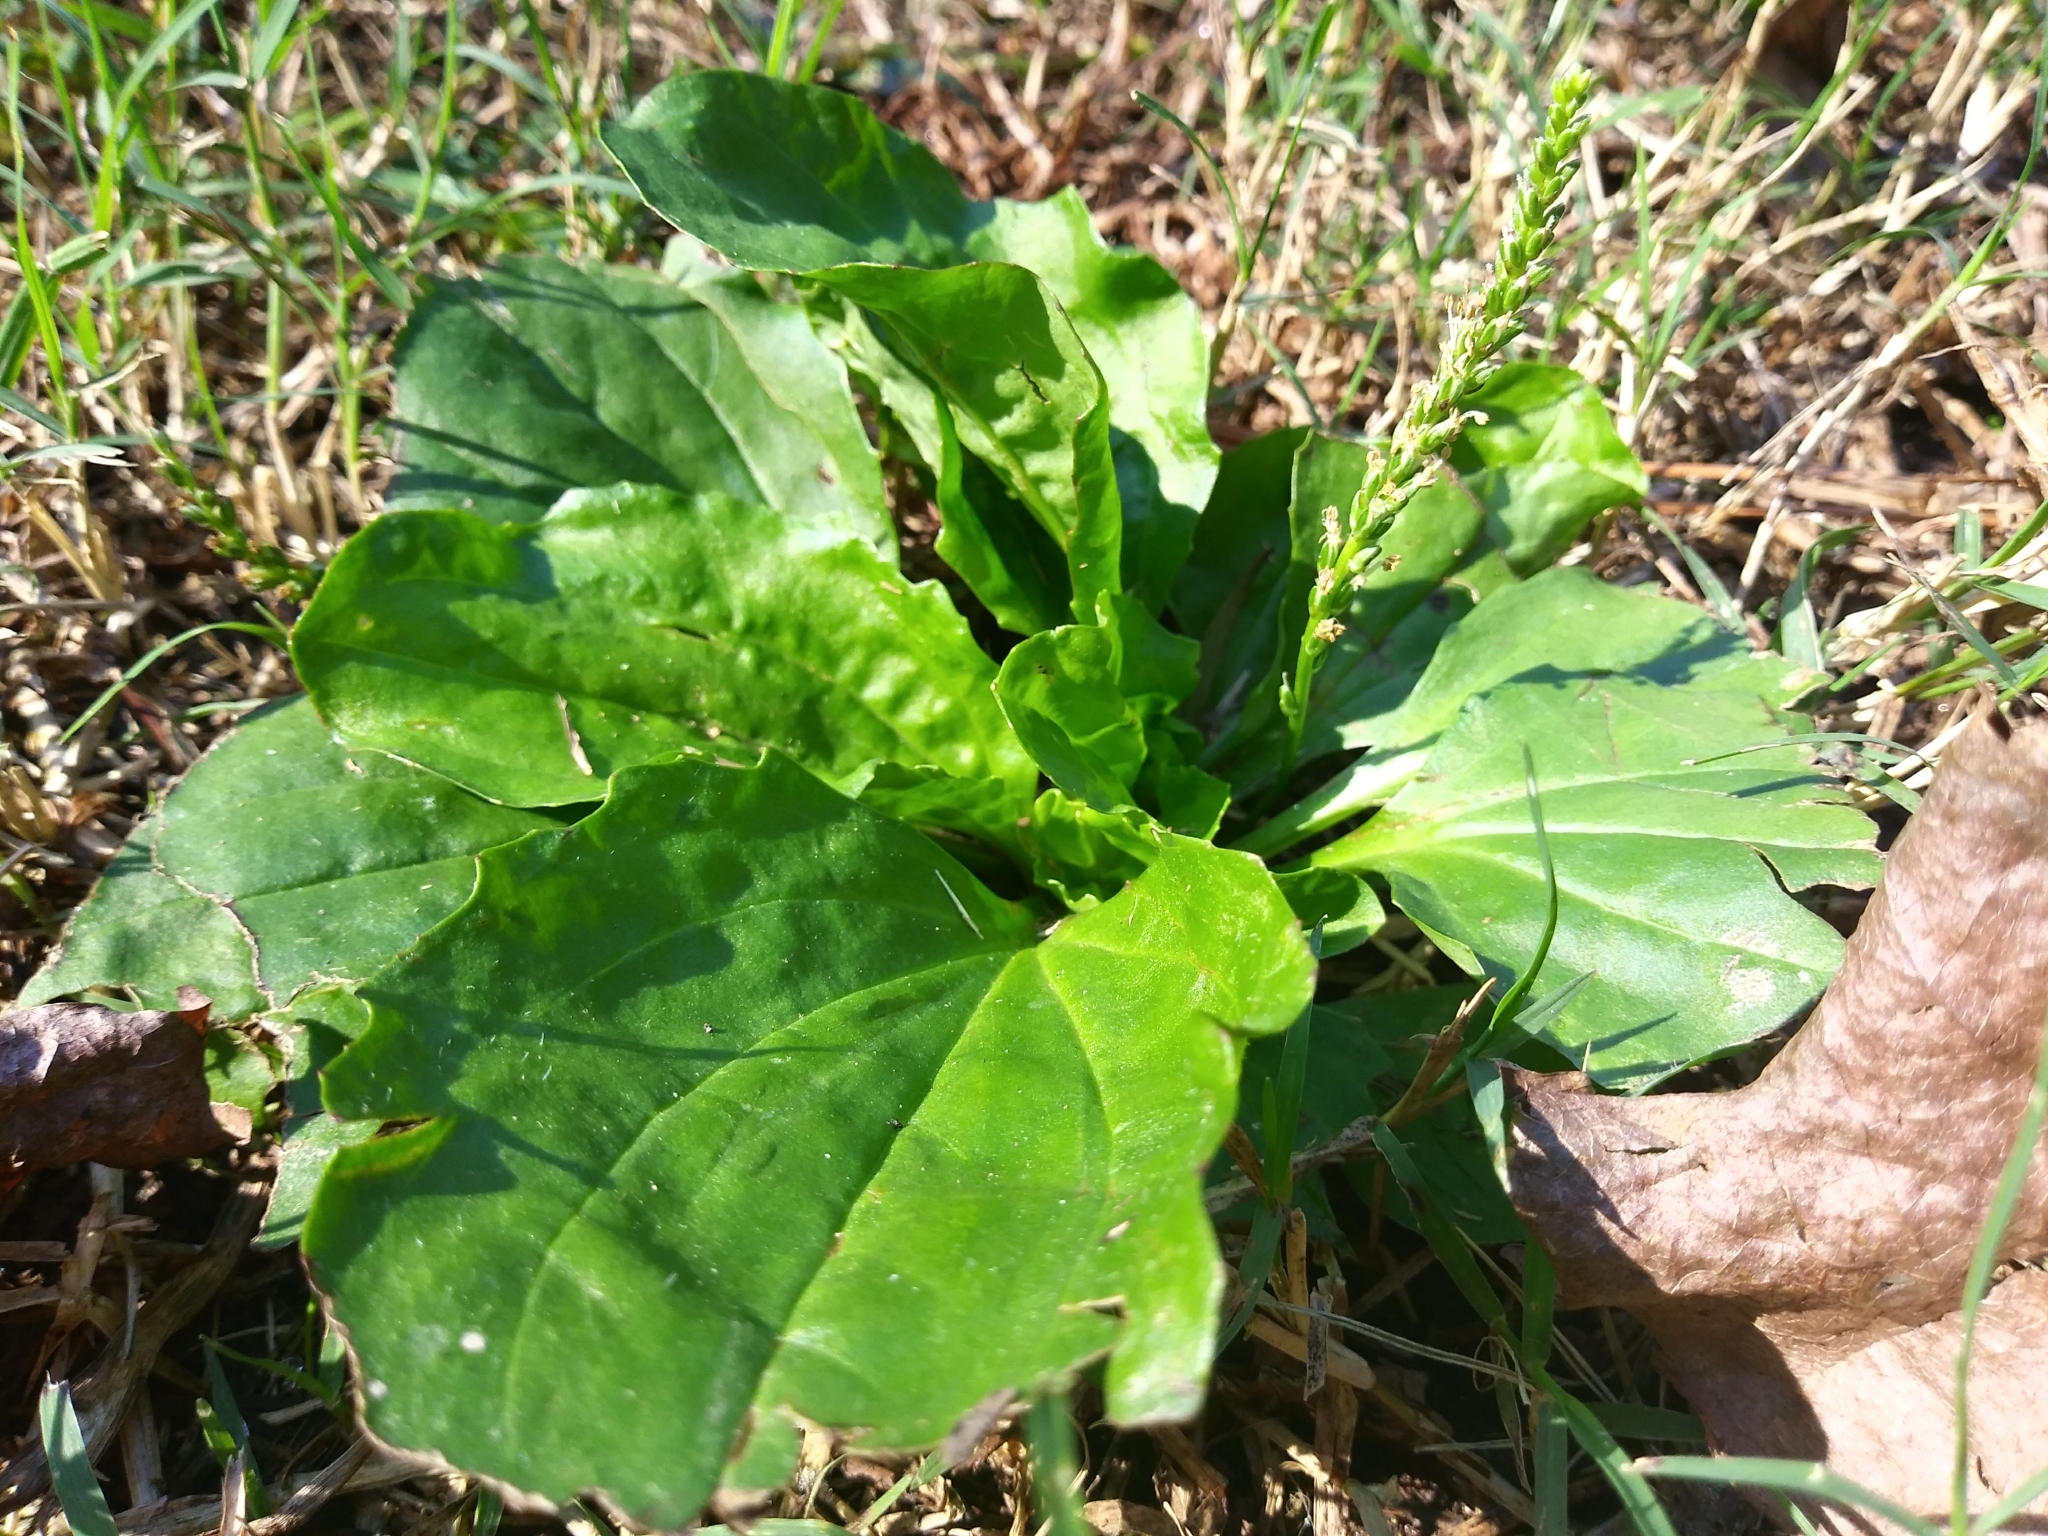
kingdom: Plantae
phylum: Tracheophyta
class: Magnoliopsida
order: Lamiales
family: Plantaginaceae
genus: Plantago
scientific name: Plantago major
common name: Common plantain
